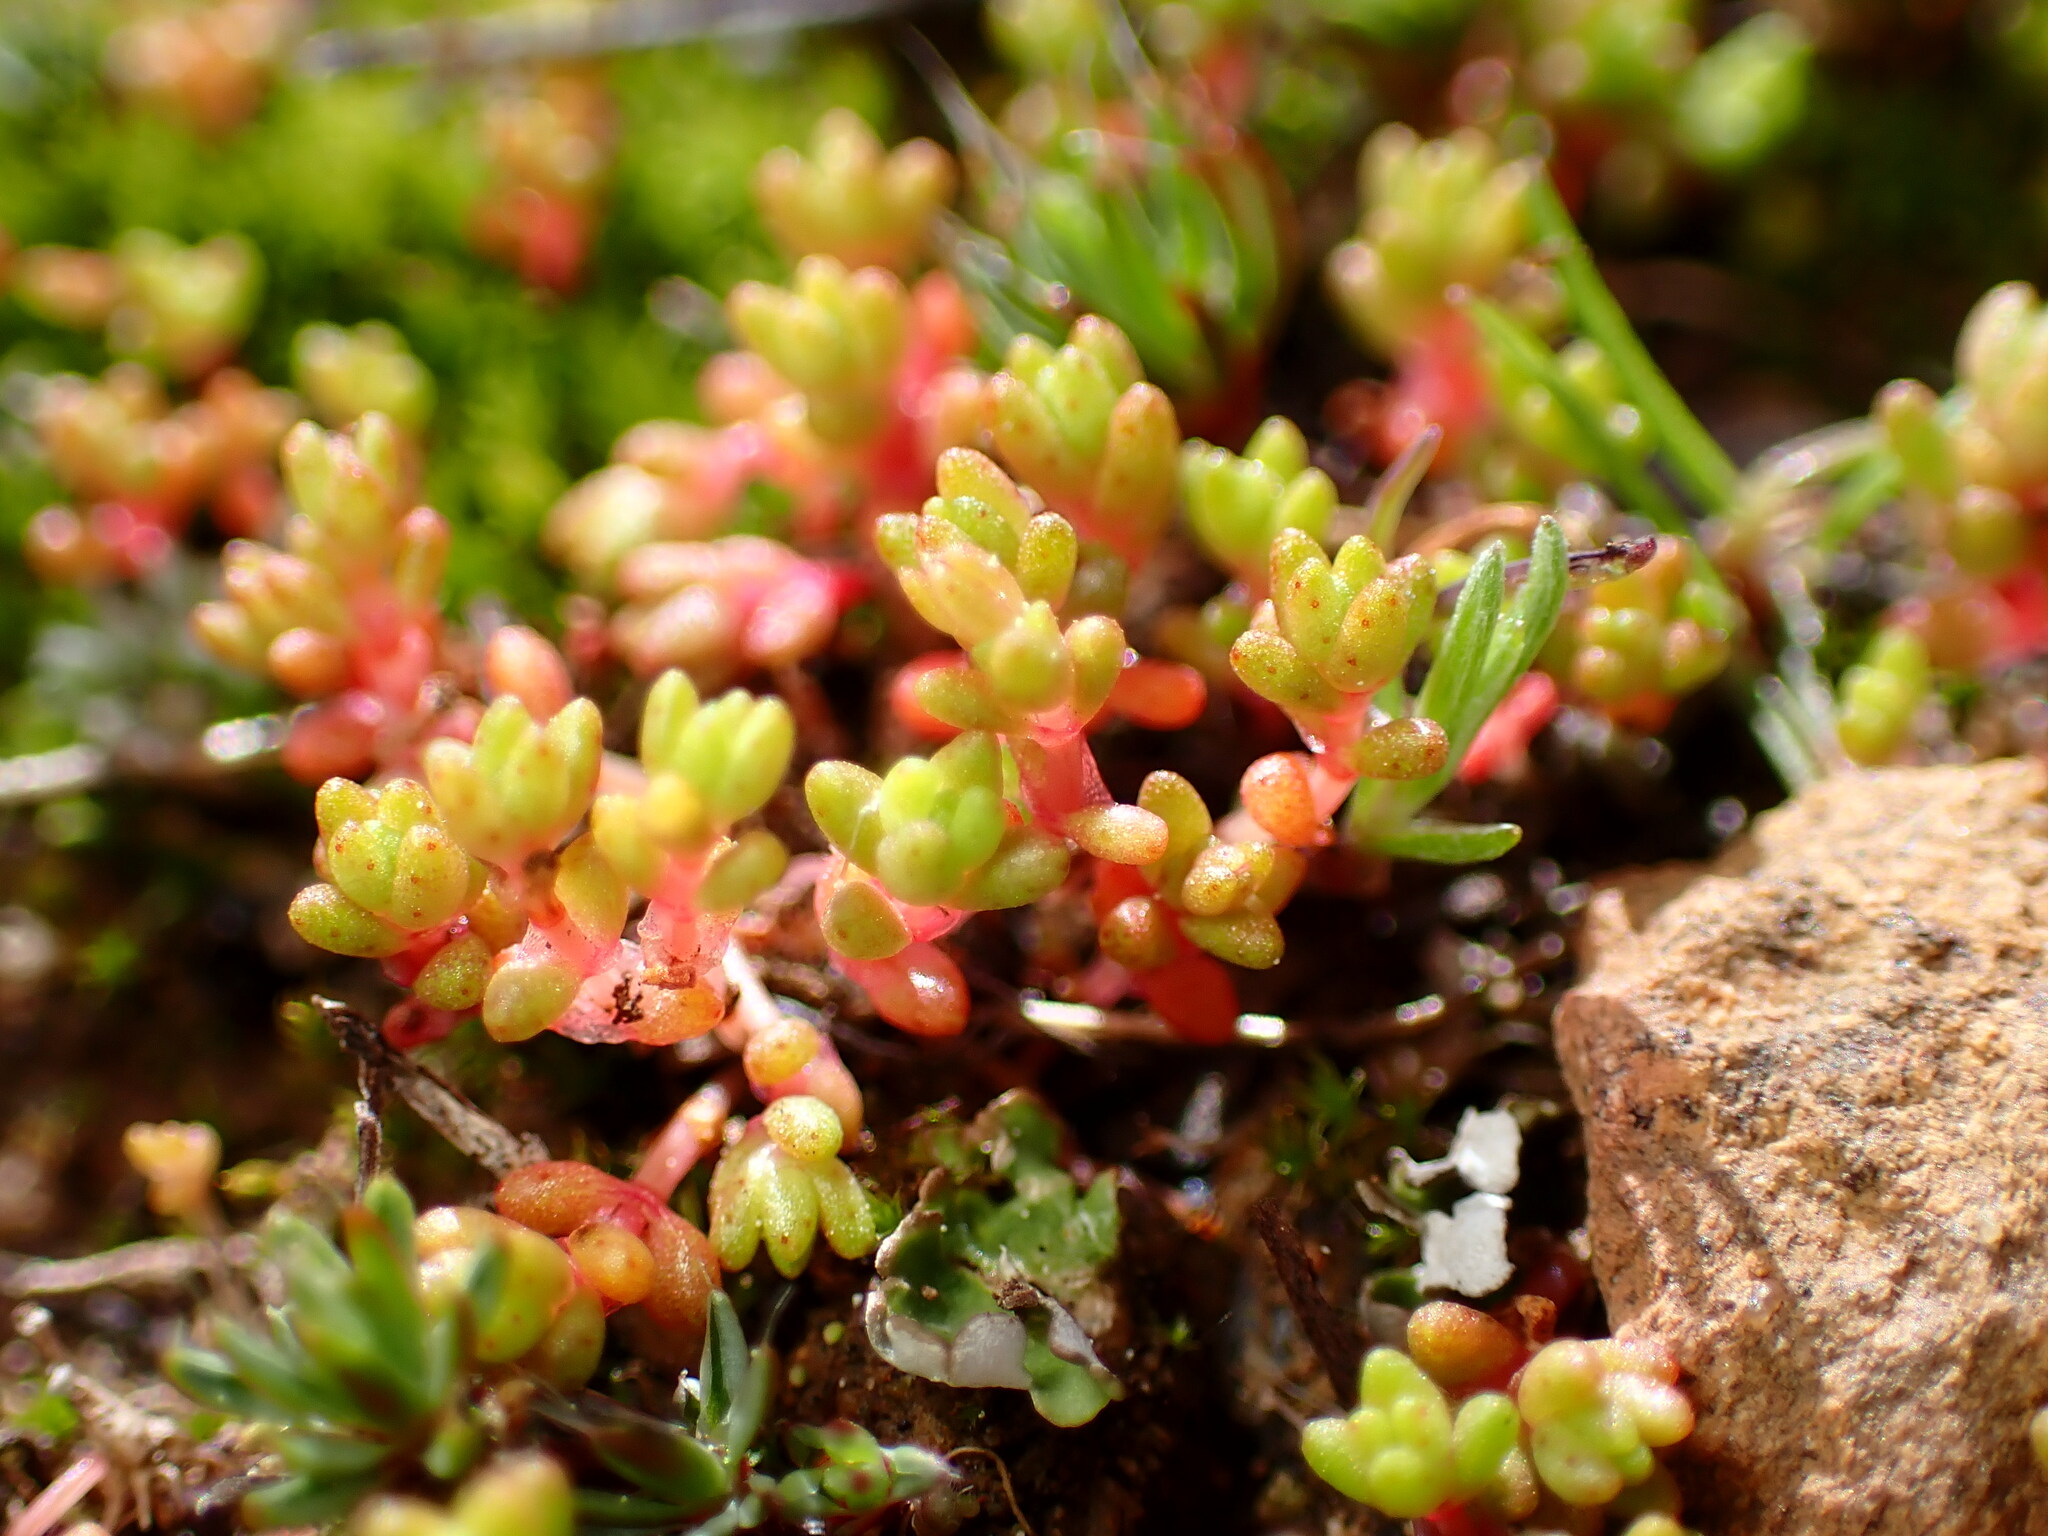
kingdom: Plantae
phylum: Tracheophyta
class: Magnoliopsida
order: Saxifragales
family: Crassulaceae
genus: Crassula
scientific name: Crassula connata
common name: Erect pygmyweed
